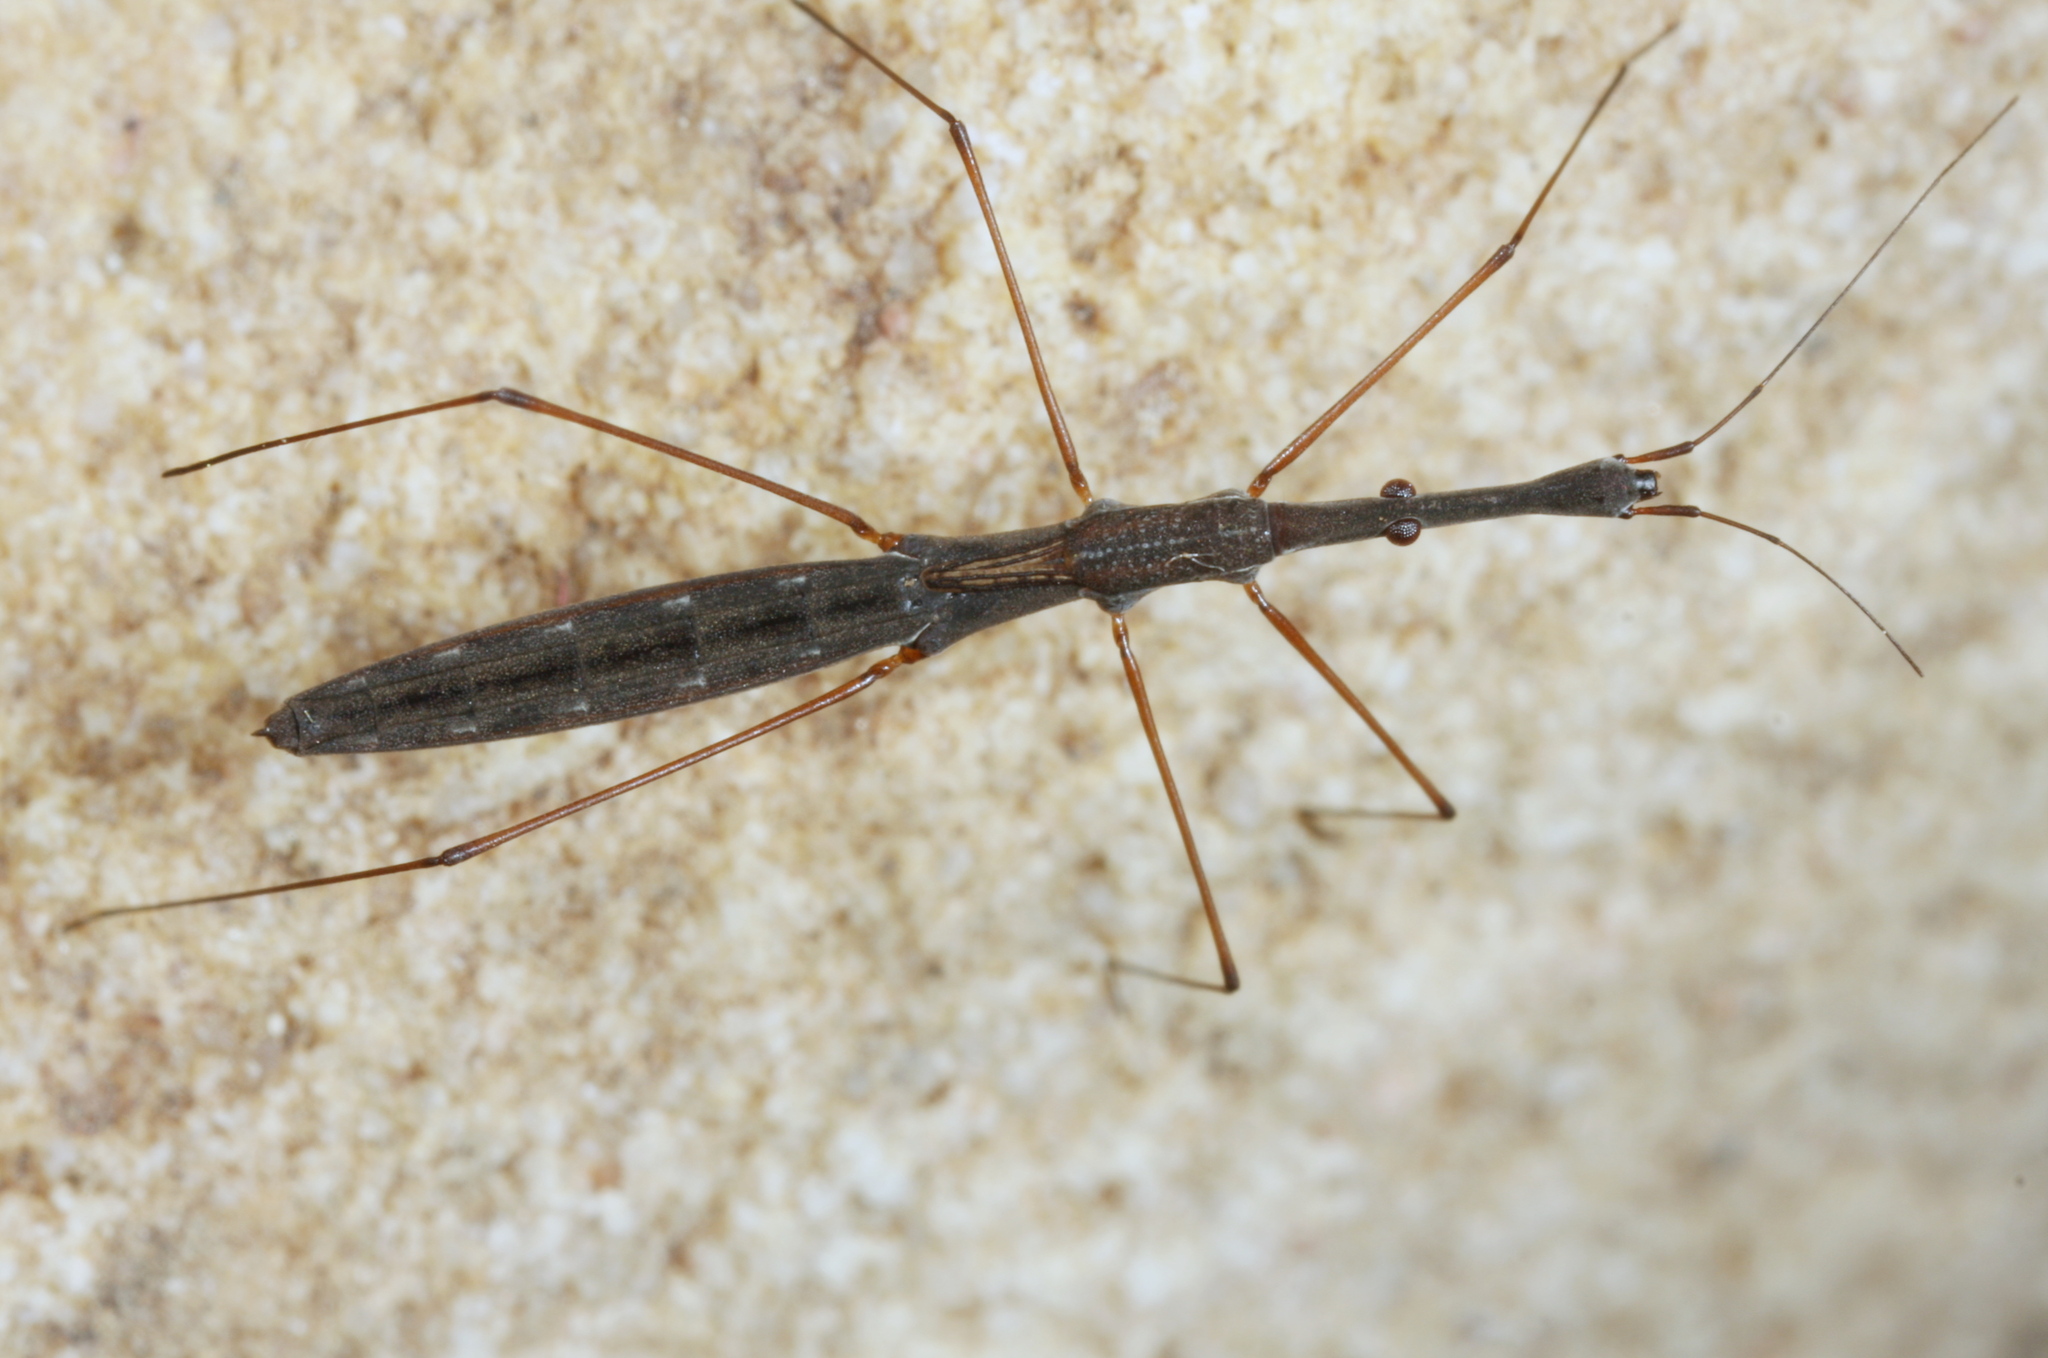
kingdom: Animalia
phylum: Arthropoda
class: Insecta
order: Hemiptera
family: Hydrometridae
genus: Hydrometra
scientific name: Hydrometra stagnorum
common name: Water measurer
